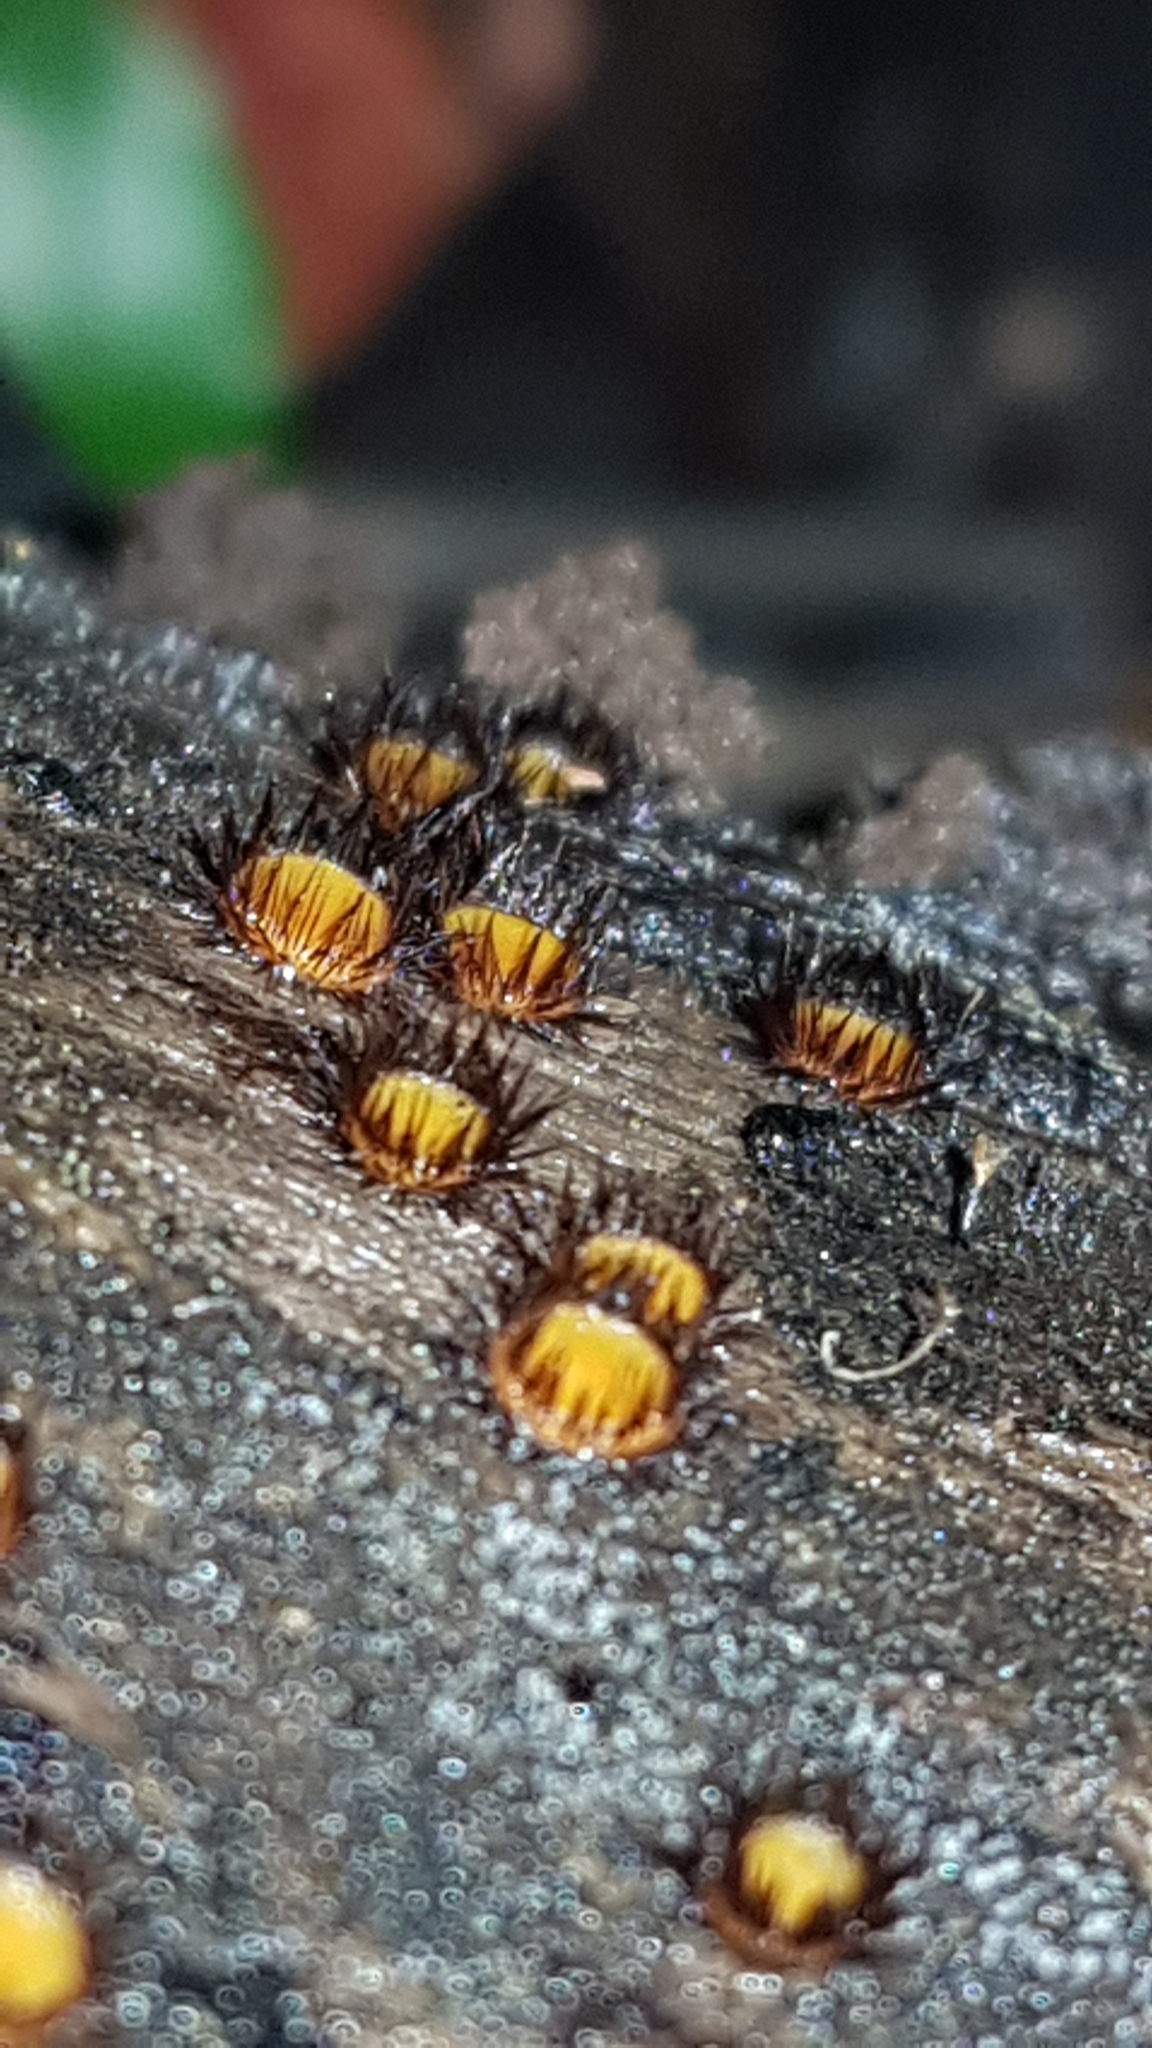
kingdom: Fungi
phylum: Ascomycota
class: Pezizomycetes
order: Pezizales
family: Pyronemataceae
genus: Scutellinia
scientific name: Scutellinia setosa
